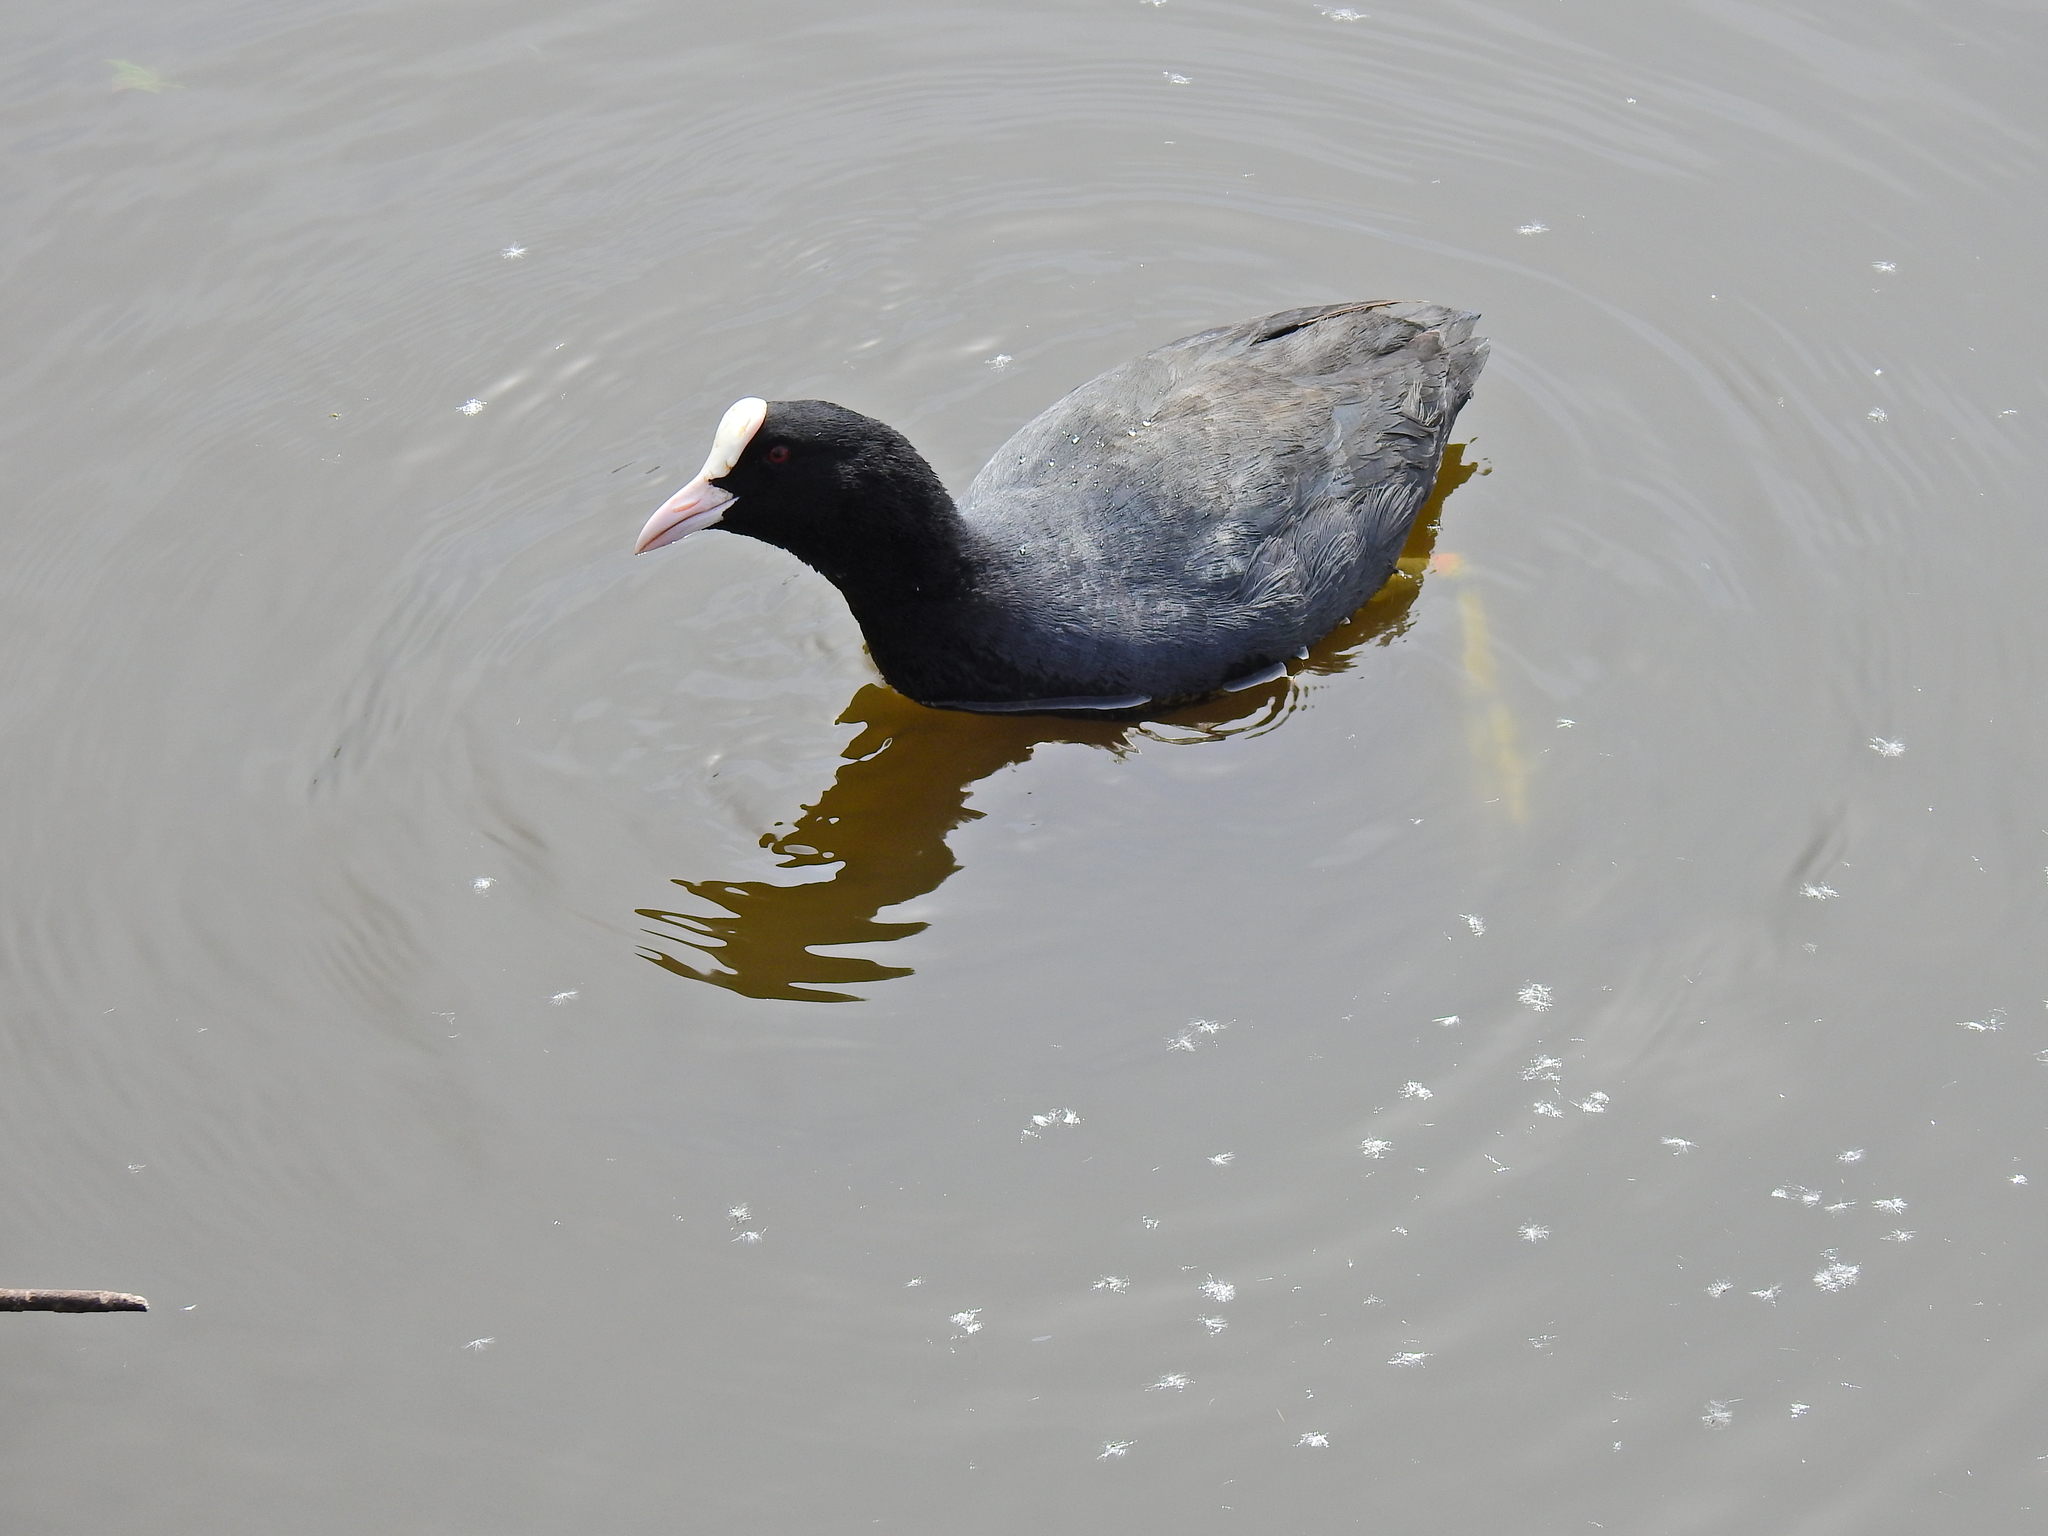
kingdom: Animalia
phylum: Chordata
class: Aves
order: Gruiformes
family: Rallidae
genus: Fulica
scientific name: Fulica atra
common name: Eurasian coot
